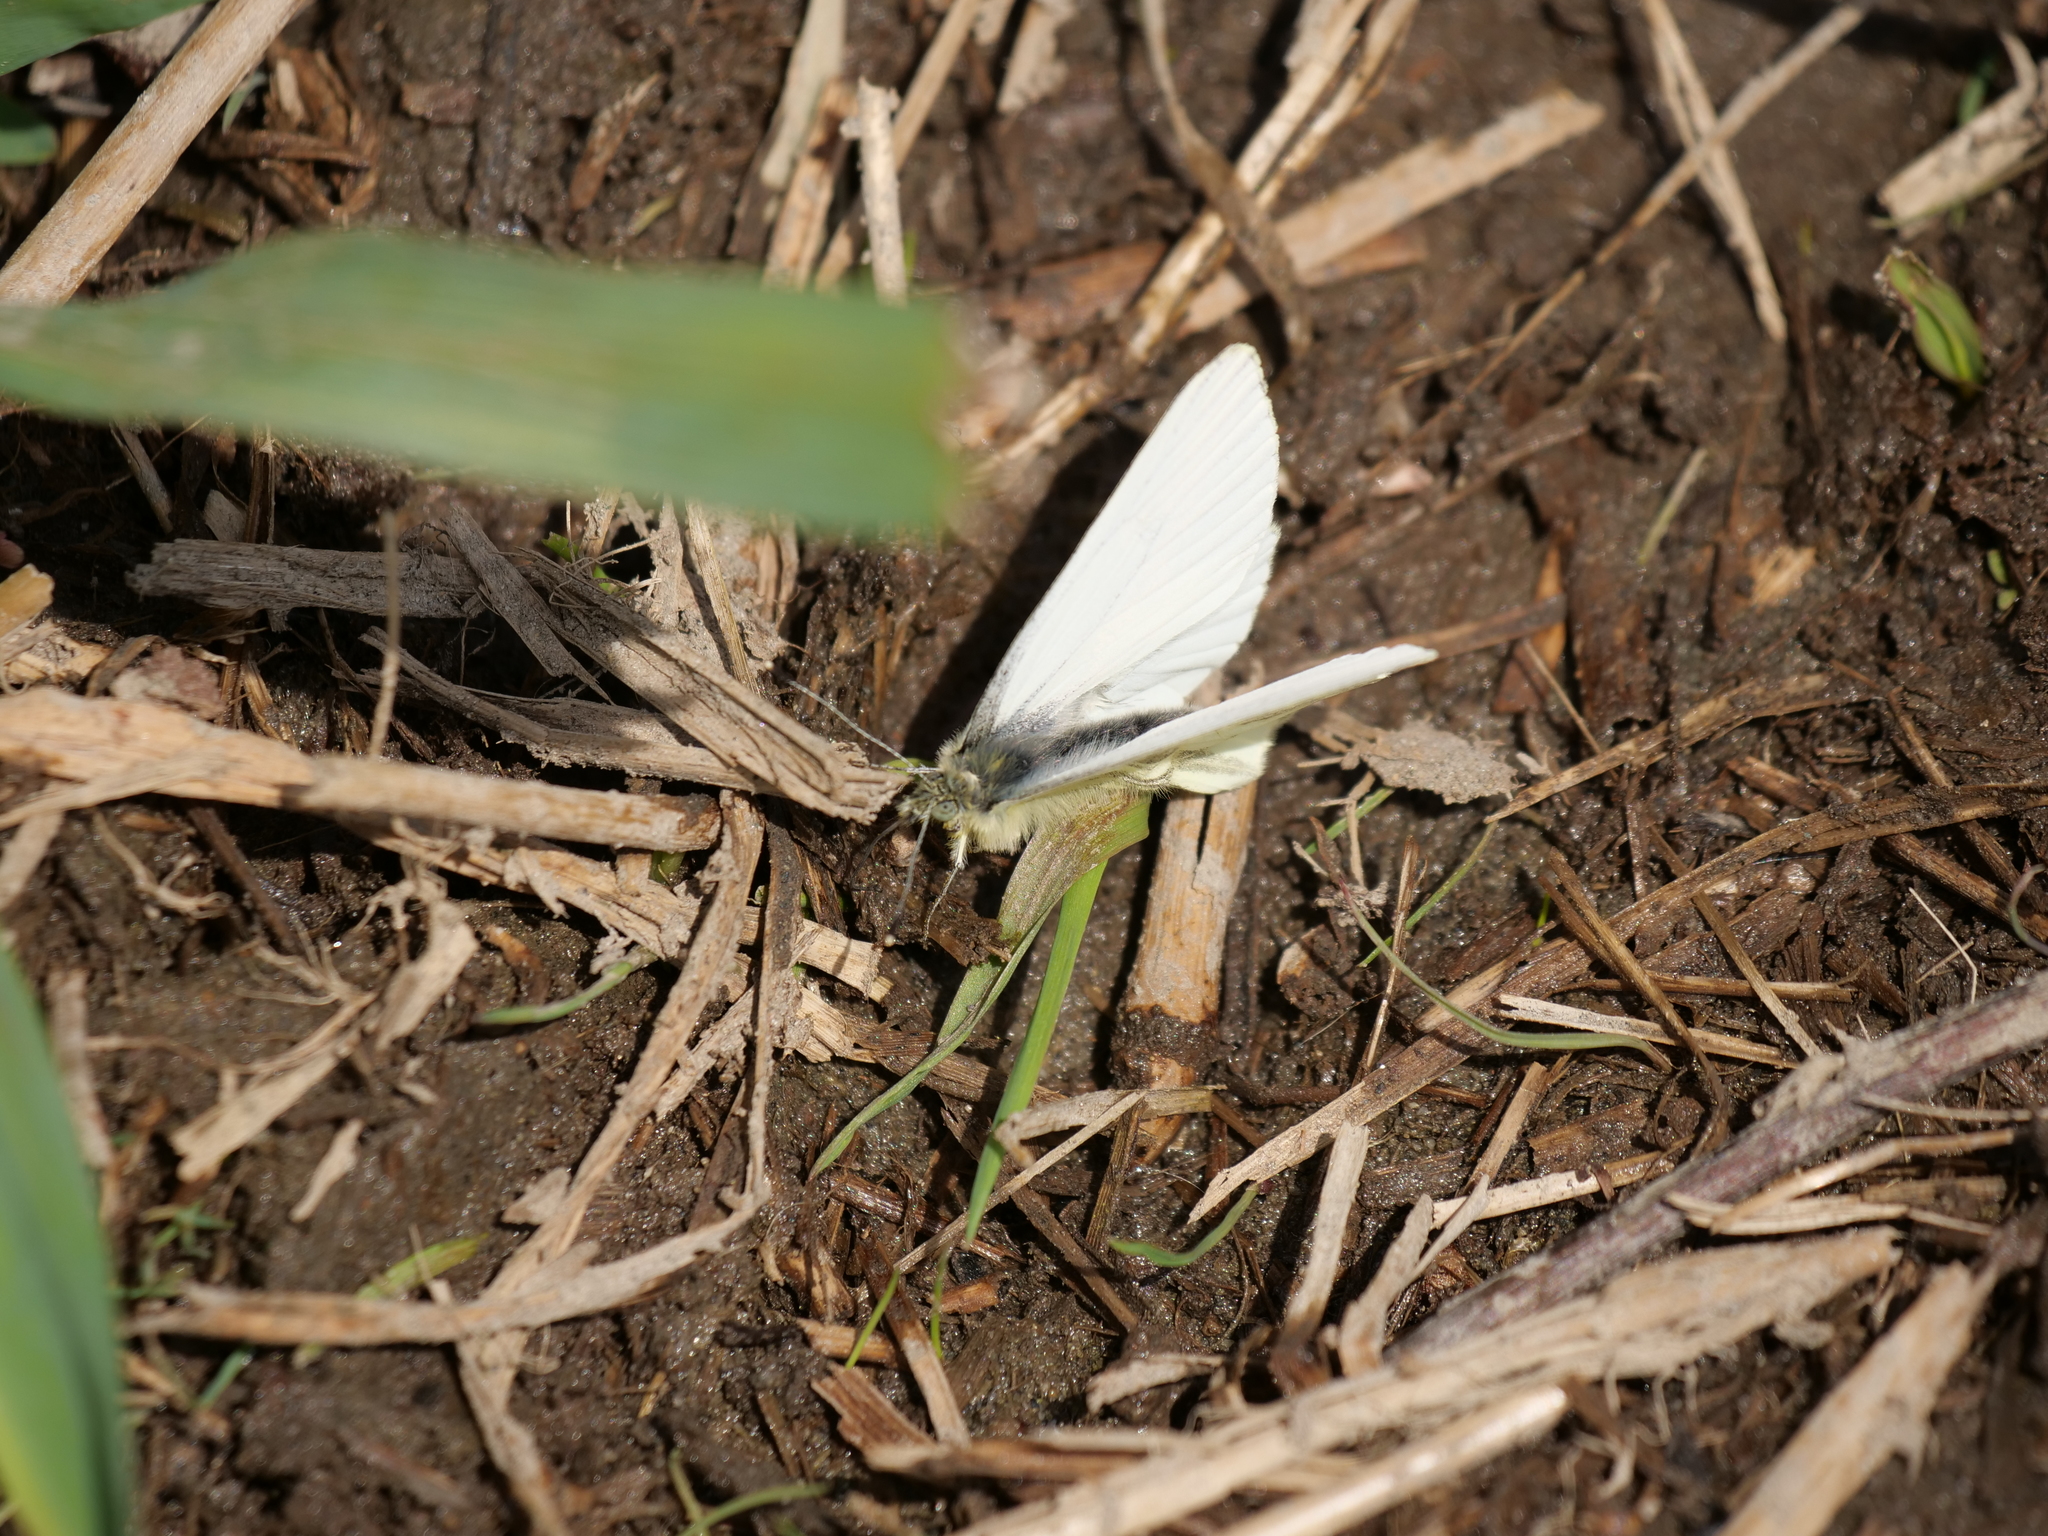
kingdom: Animalia
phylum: Arthropoda
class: Insecta
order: Lepidoptera
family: Pieridae
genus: Pieris
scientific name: Pieris marginalis
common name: Margined white
